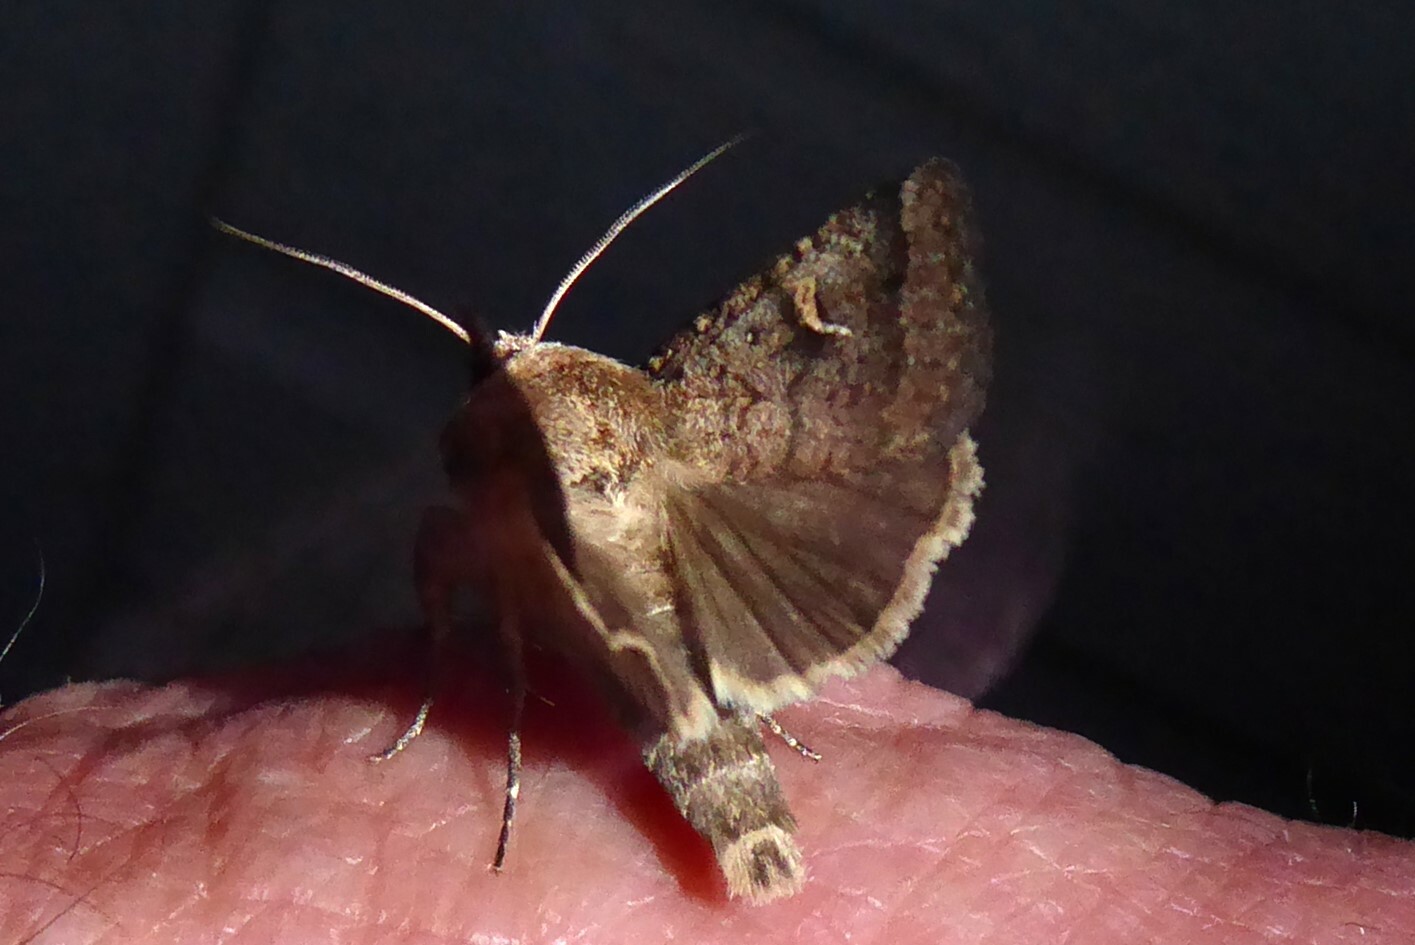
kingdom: Animalia
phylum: Arthropoda
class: Insecta
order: Lepidoptera
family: Noctuidae
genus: Proteuxoa
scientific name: Proteuxoa tetronycha
